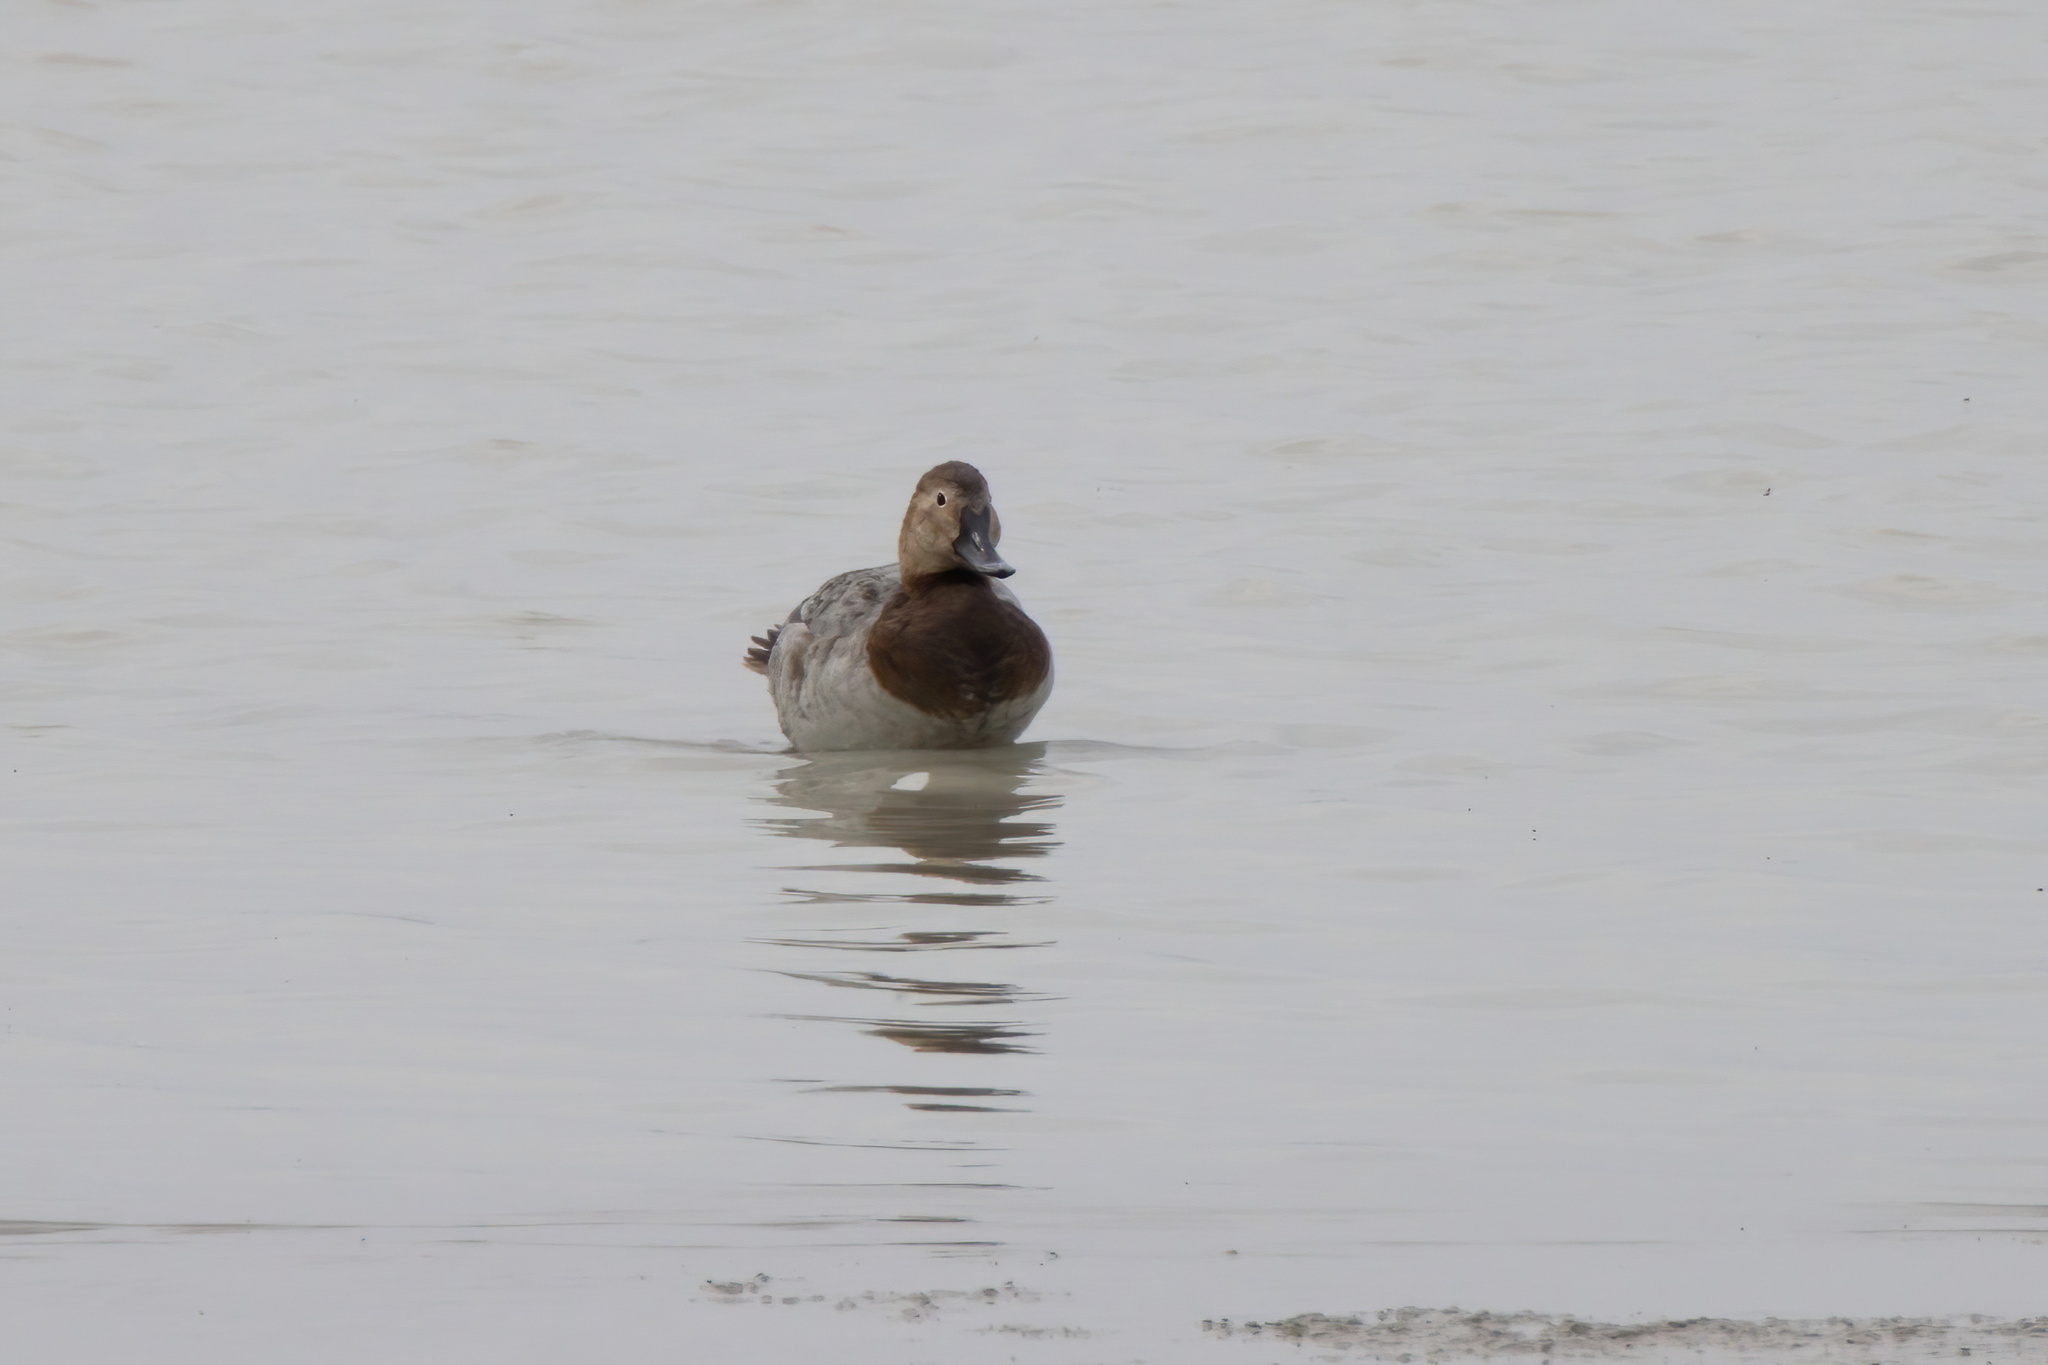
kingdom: Animalia
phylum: Chordata
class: Aves
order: Anseriformes
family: Anatidae
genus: Aythya
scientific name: Aythya valisineria
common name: Canvasback
